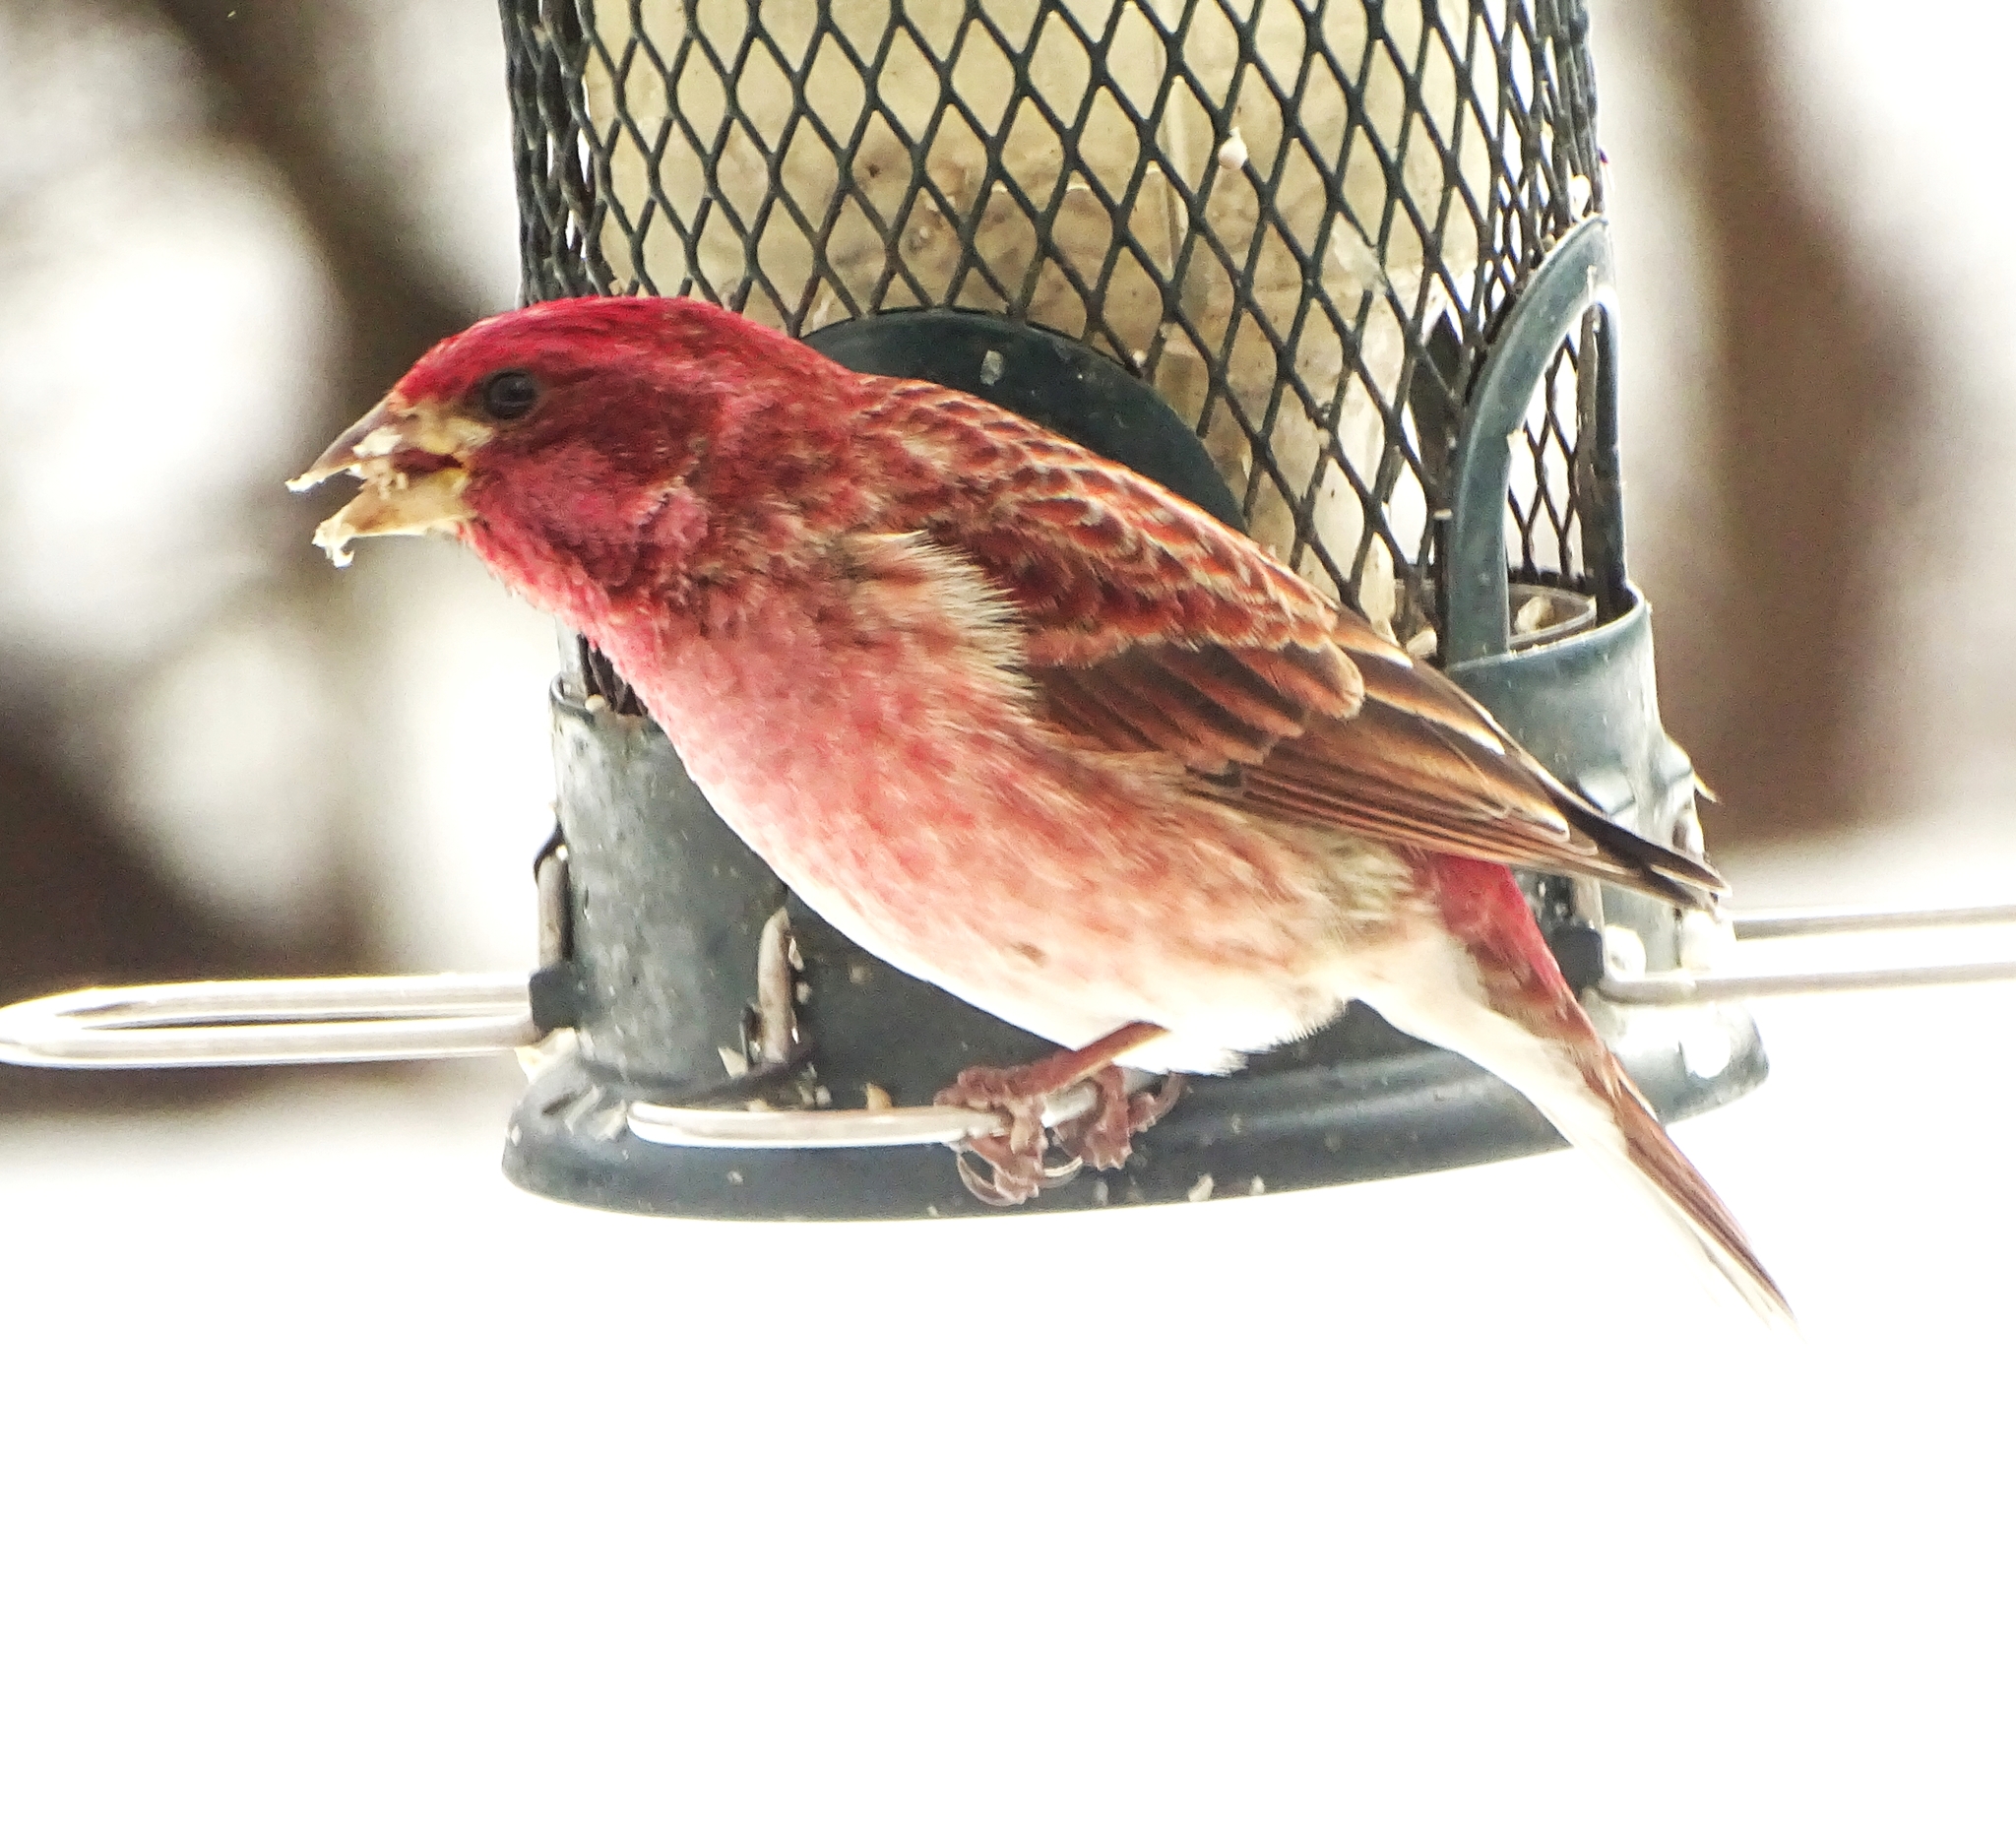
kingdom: Animalia
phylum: Chordata
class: Aves
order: Passeriformes
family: Fringillidae
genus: Haemorhous
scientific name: Haemorhous purpureus
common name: Purple finch
